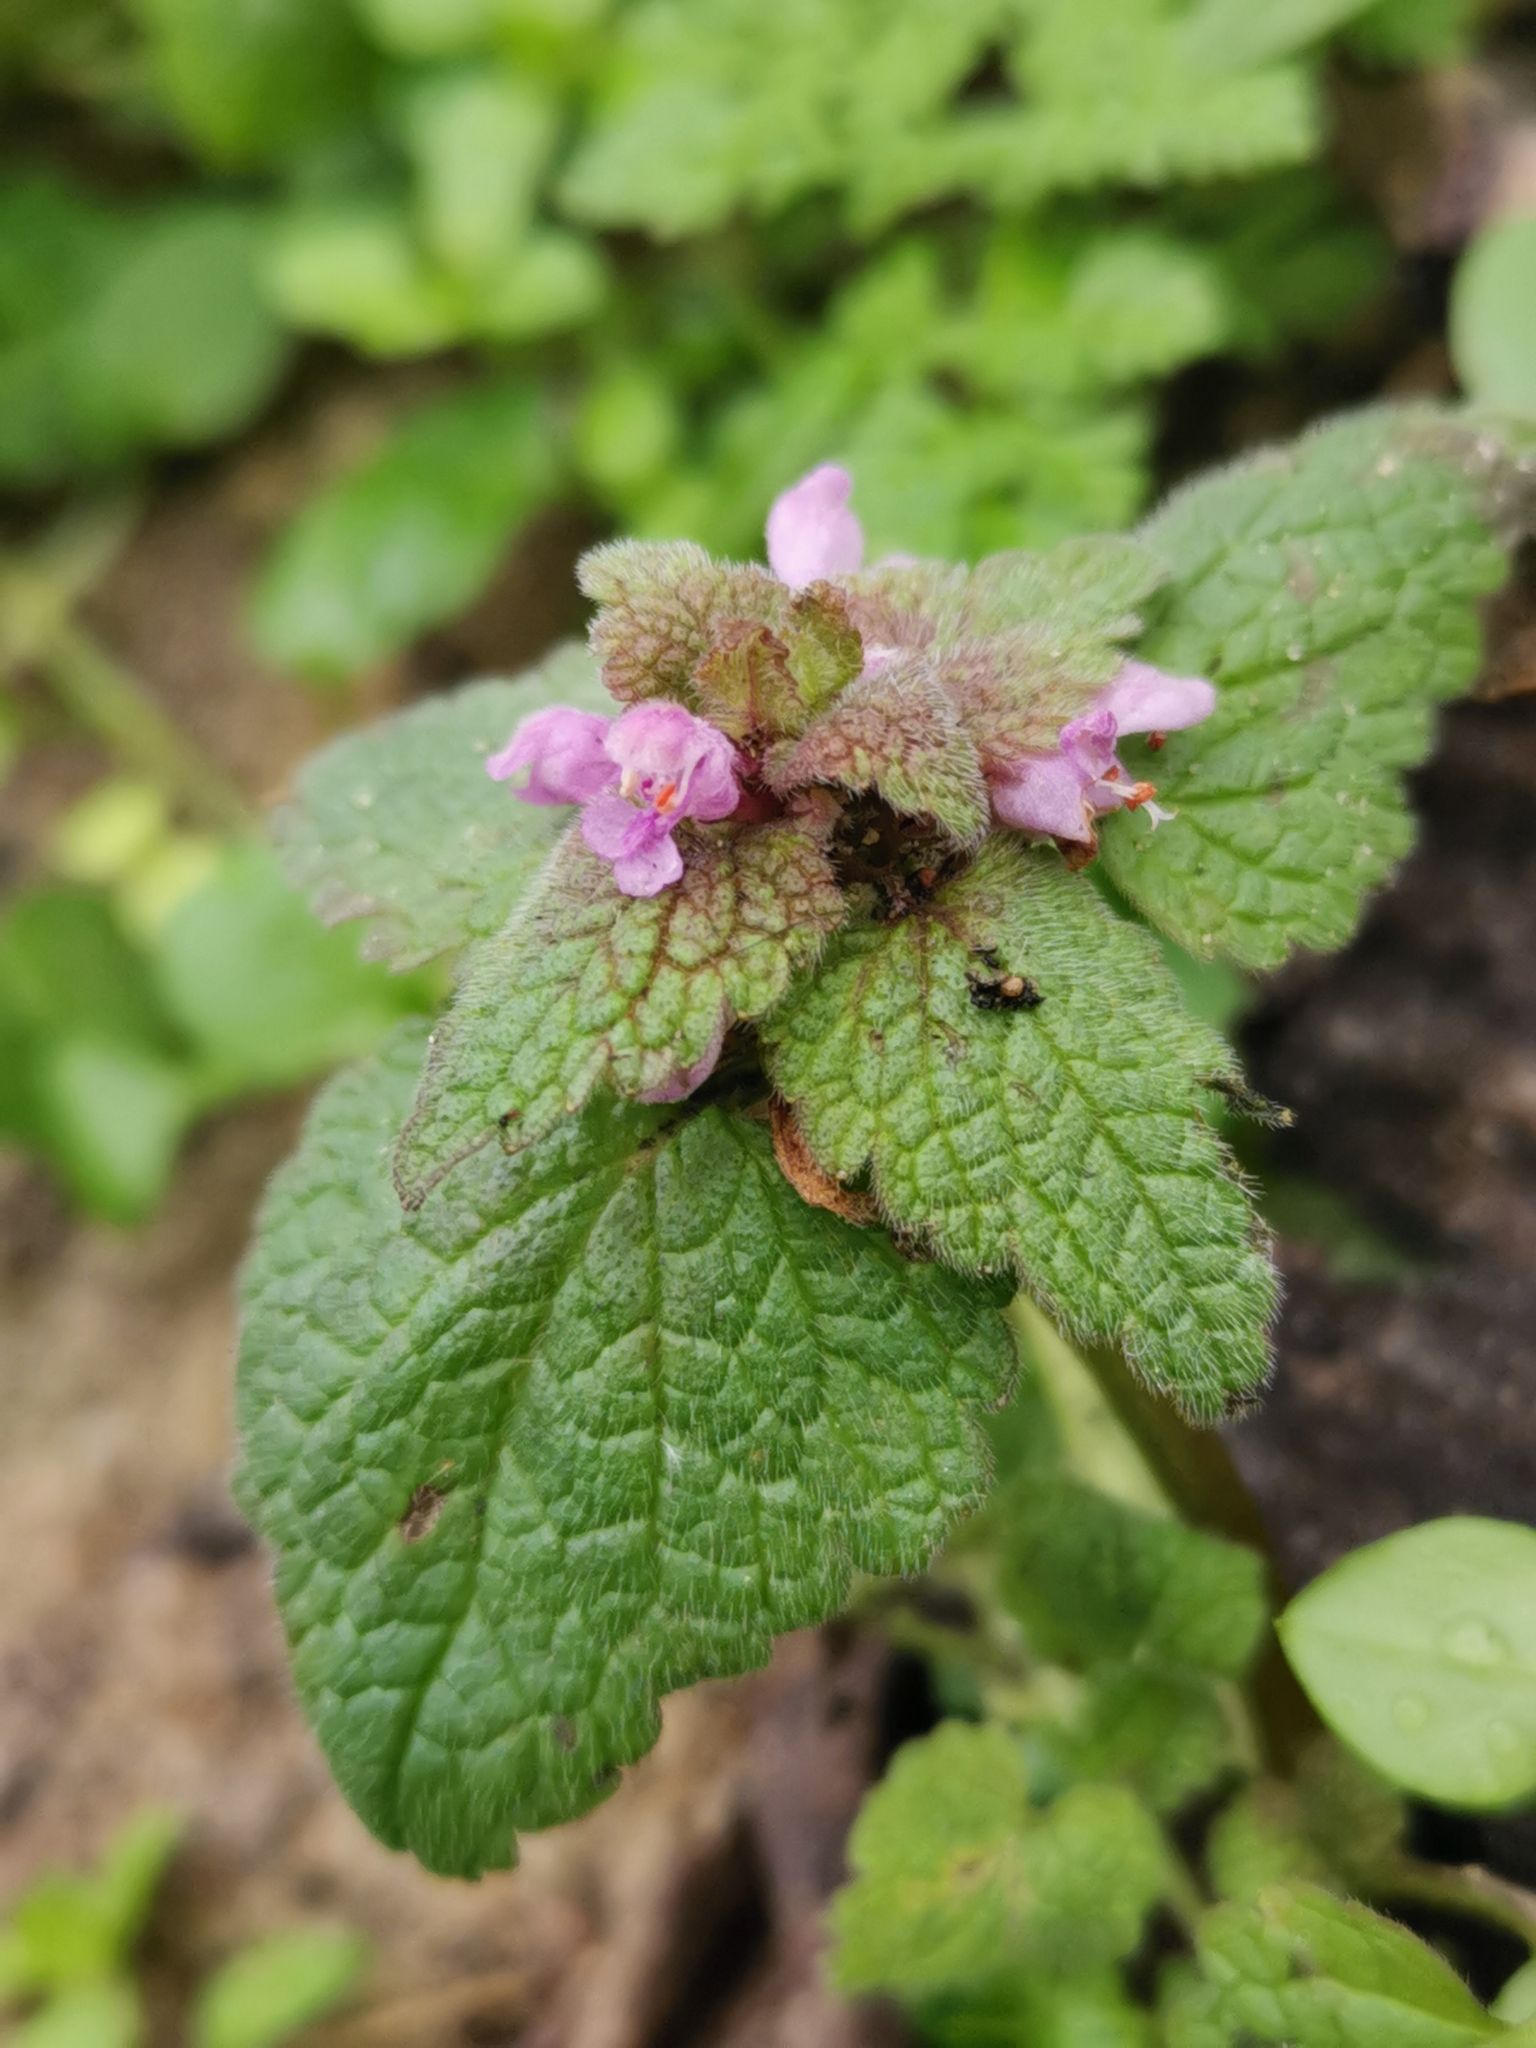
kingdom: Plantae
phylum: Tracheophyta
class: Magnoliopsida
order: Lamiales
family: Lamiaceae
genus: Lamium
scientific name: Lamium purpureum
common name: Red dead-nettle
